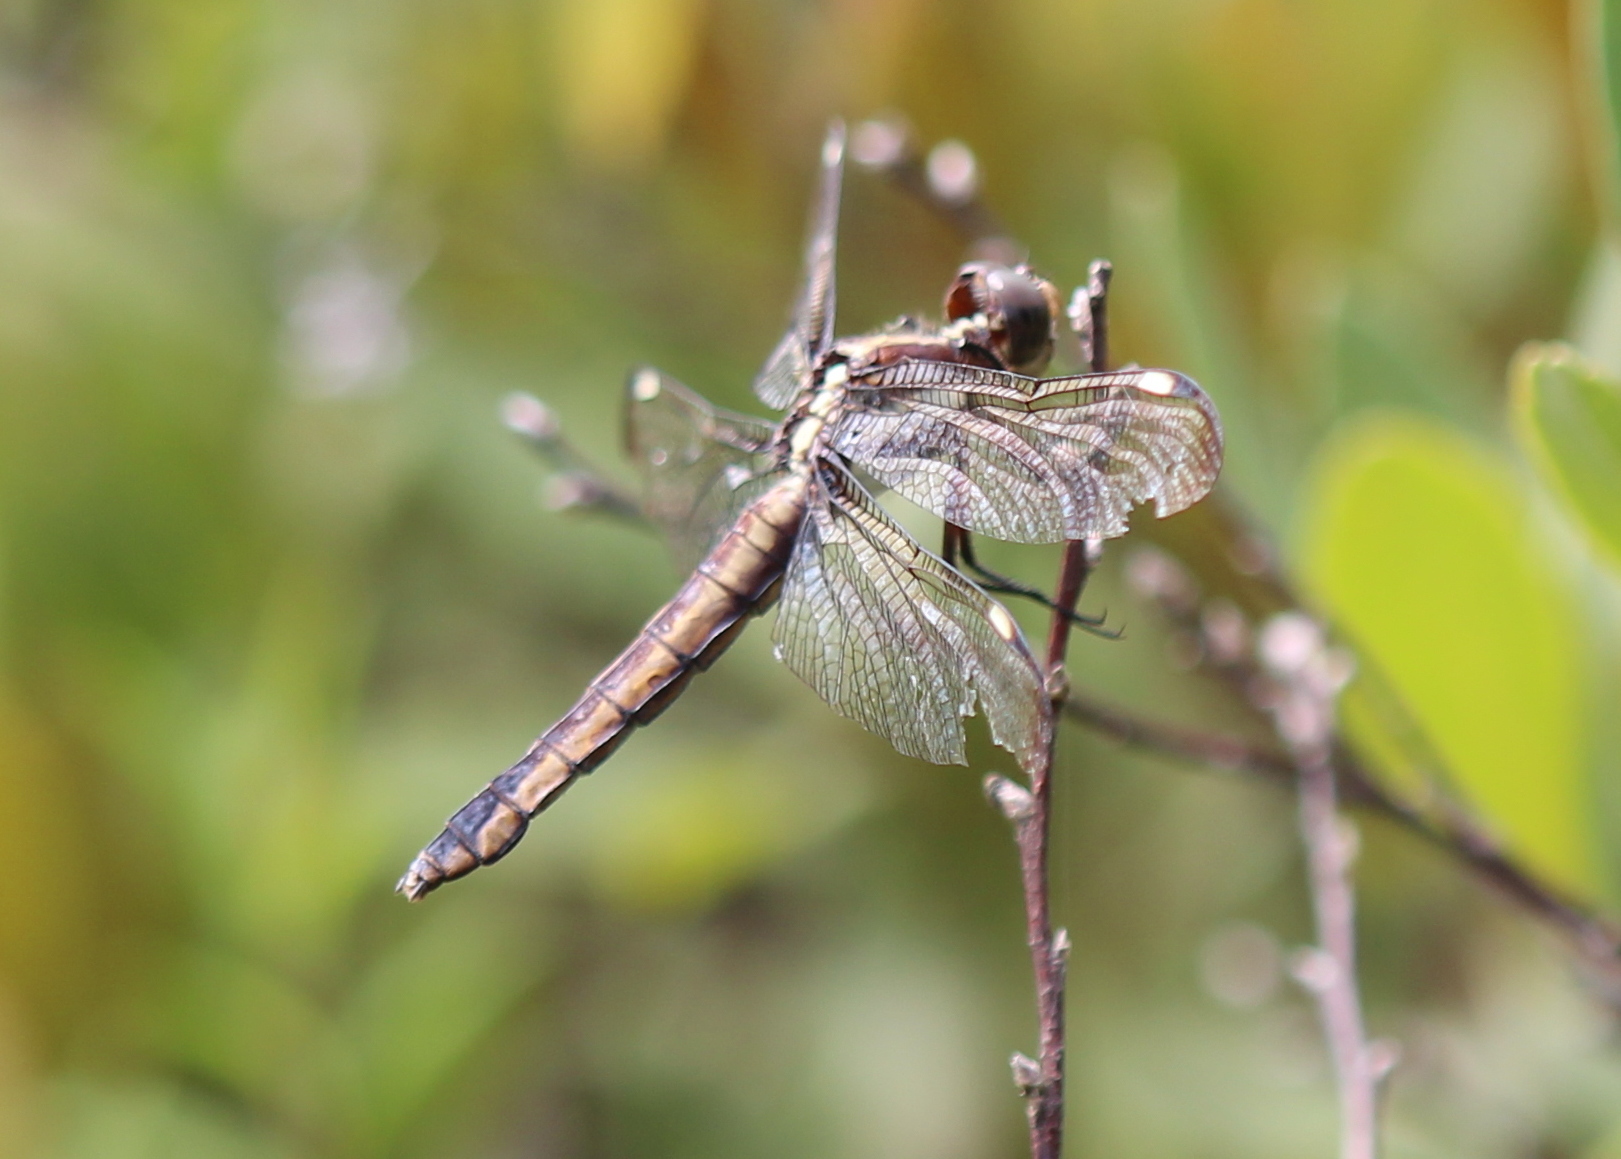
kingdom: Animalia
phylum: Arthropoda
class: Insecta
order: Odonata
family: Libellulidae
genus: Libellula
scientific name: Libellula cyanea
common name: Spangled skimmer
